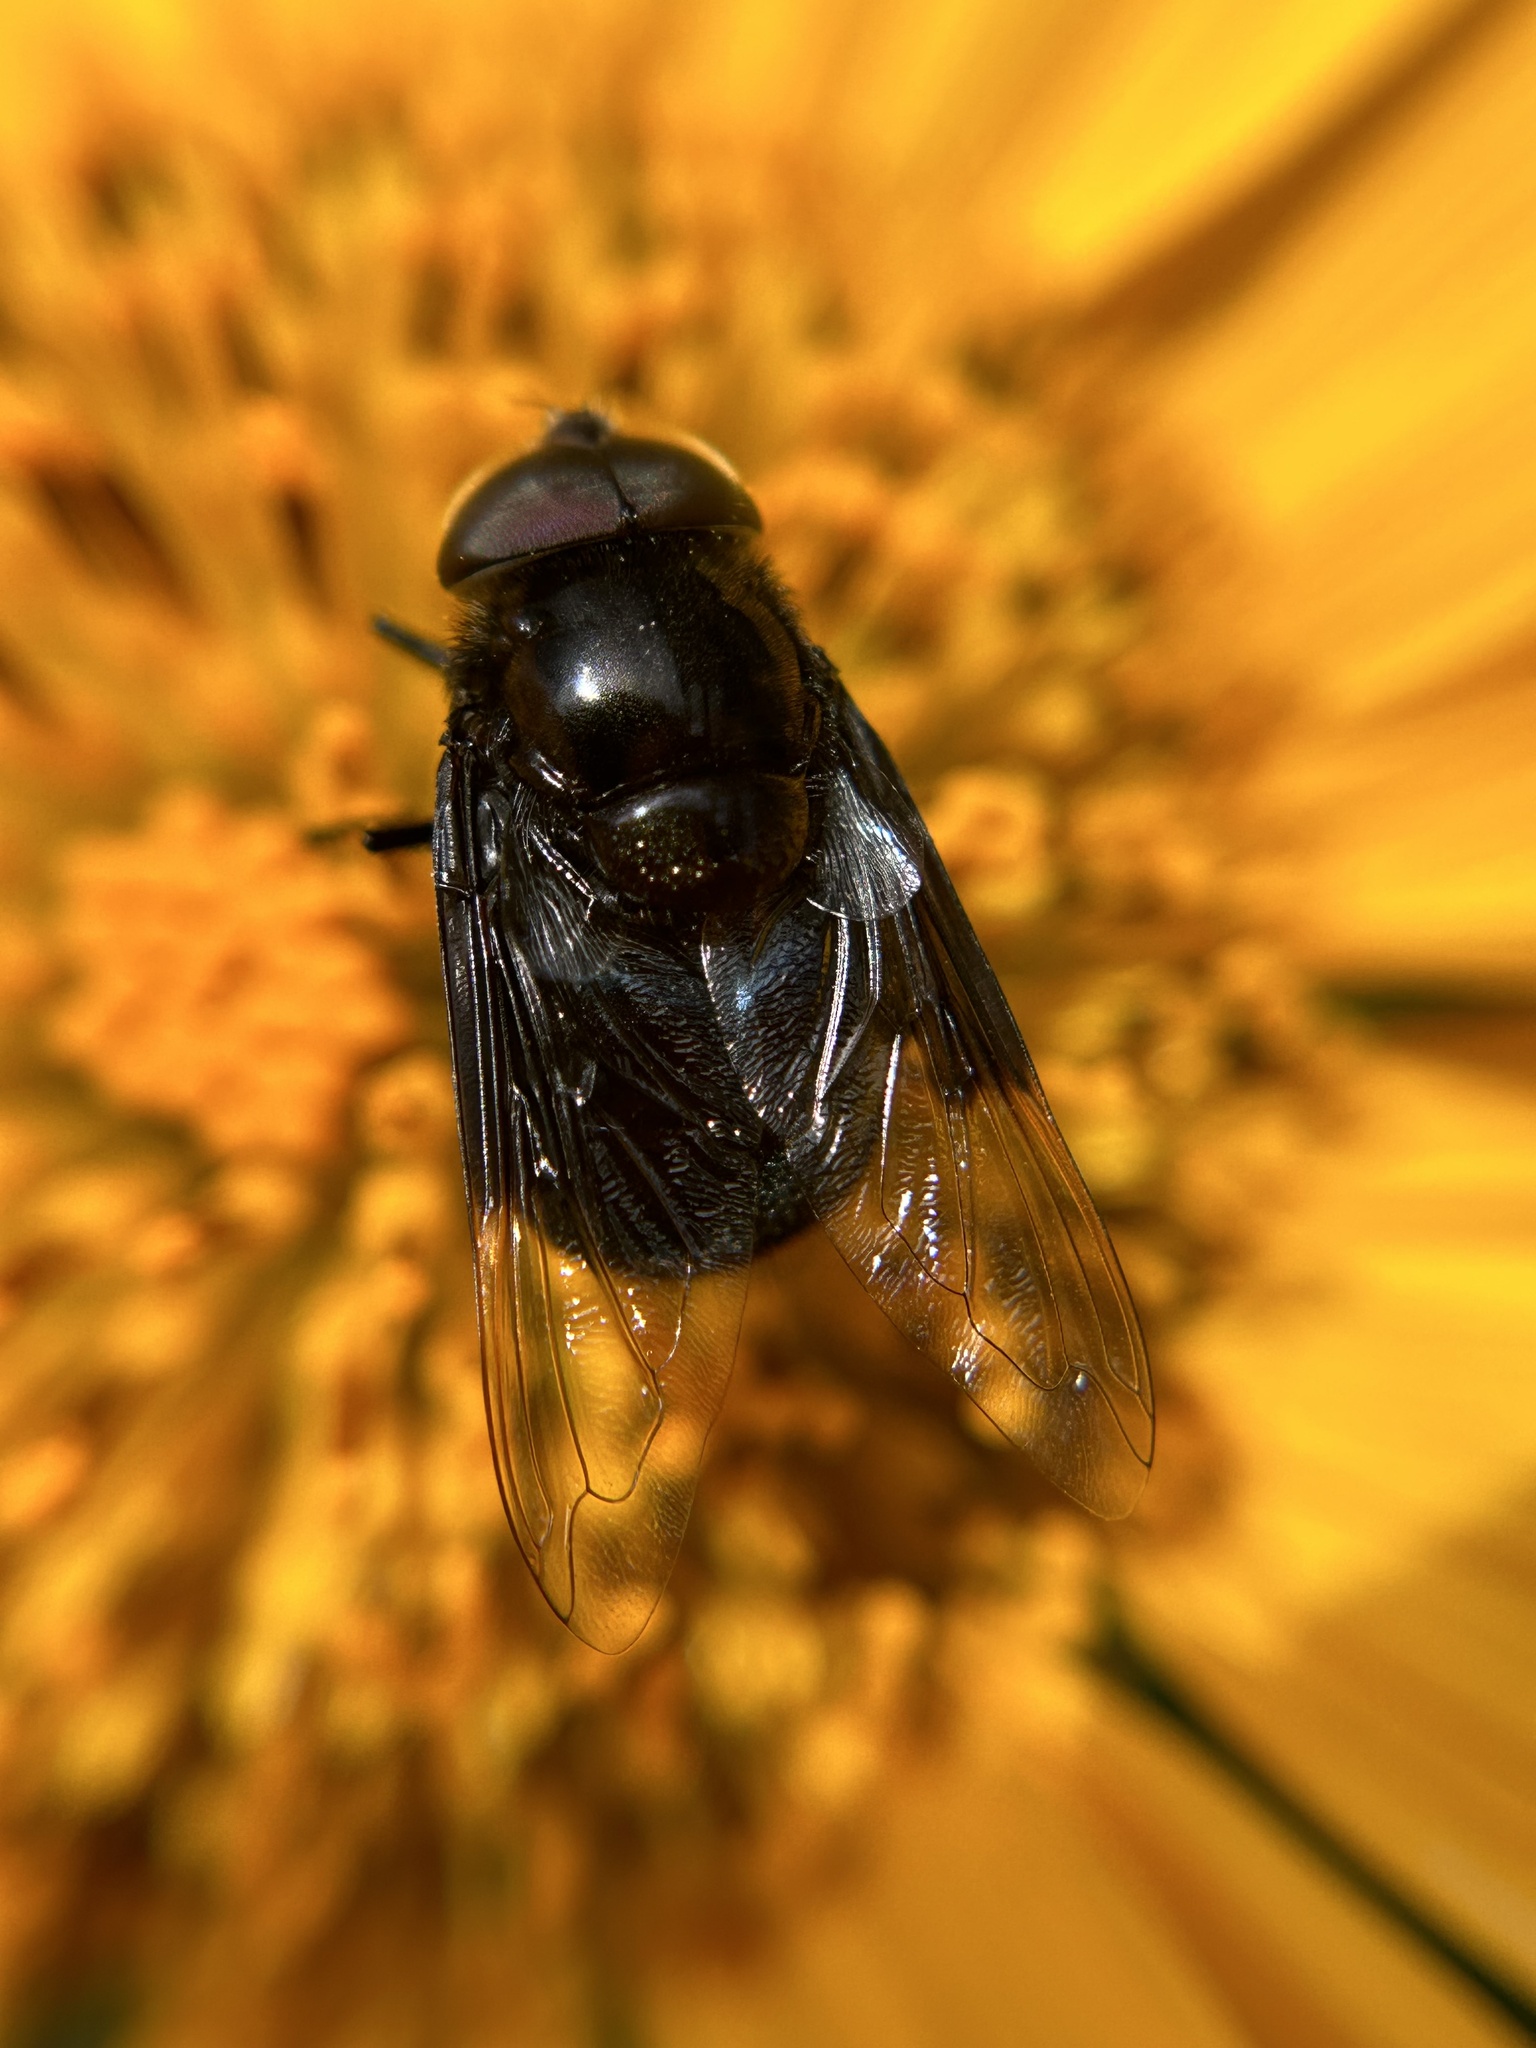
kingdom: Animalia
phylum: Arthropoda
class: Insecta
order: Diptera
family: Syrphidae
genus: Copestylum
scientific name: Copestylum violaceum
